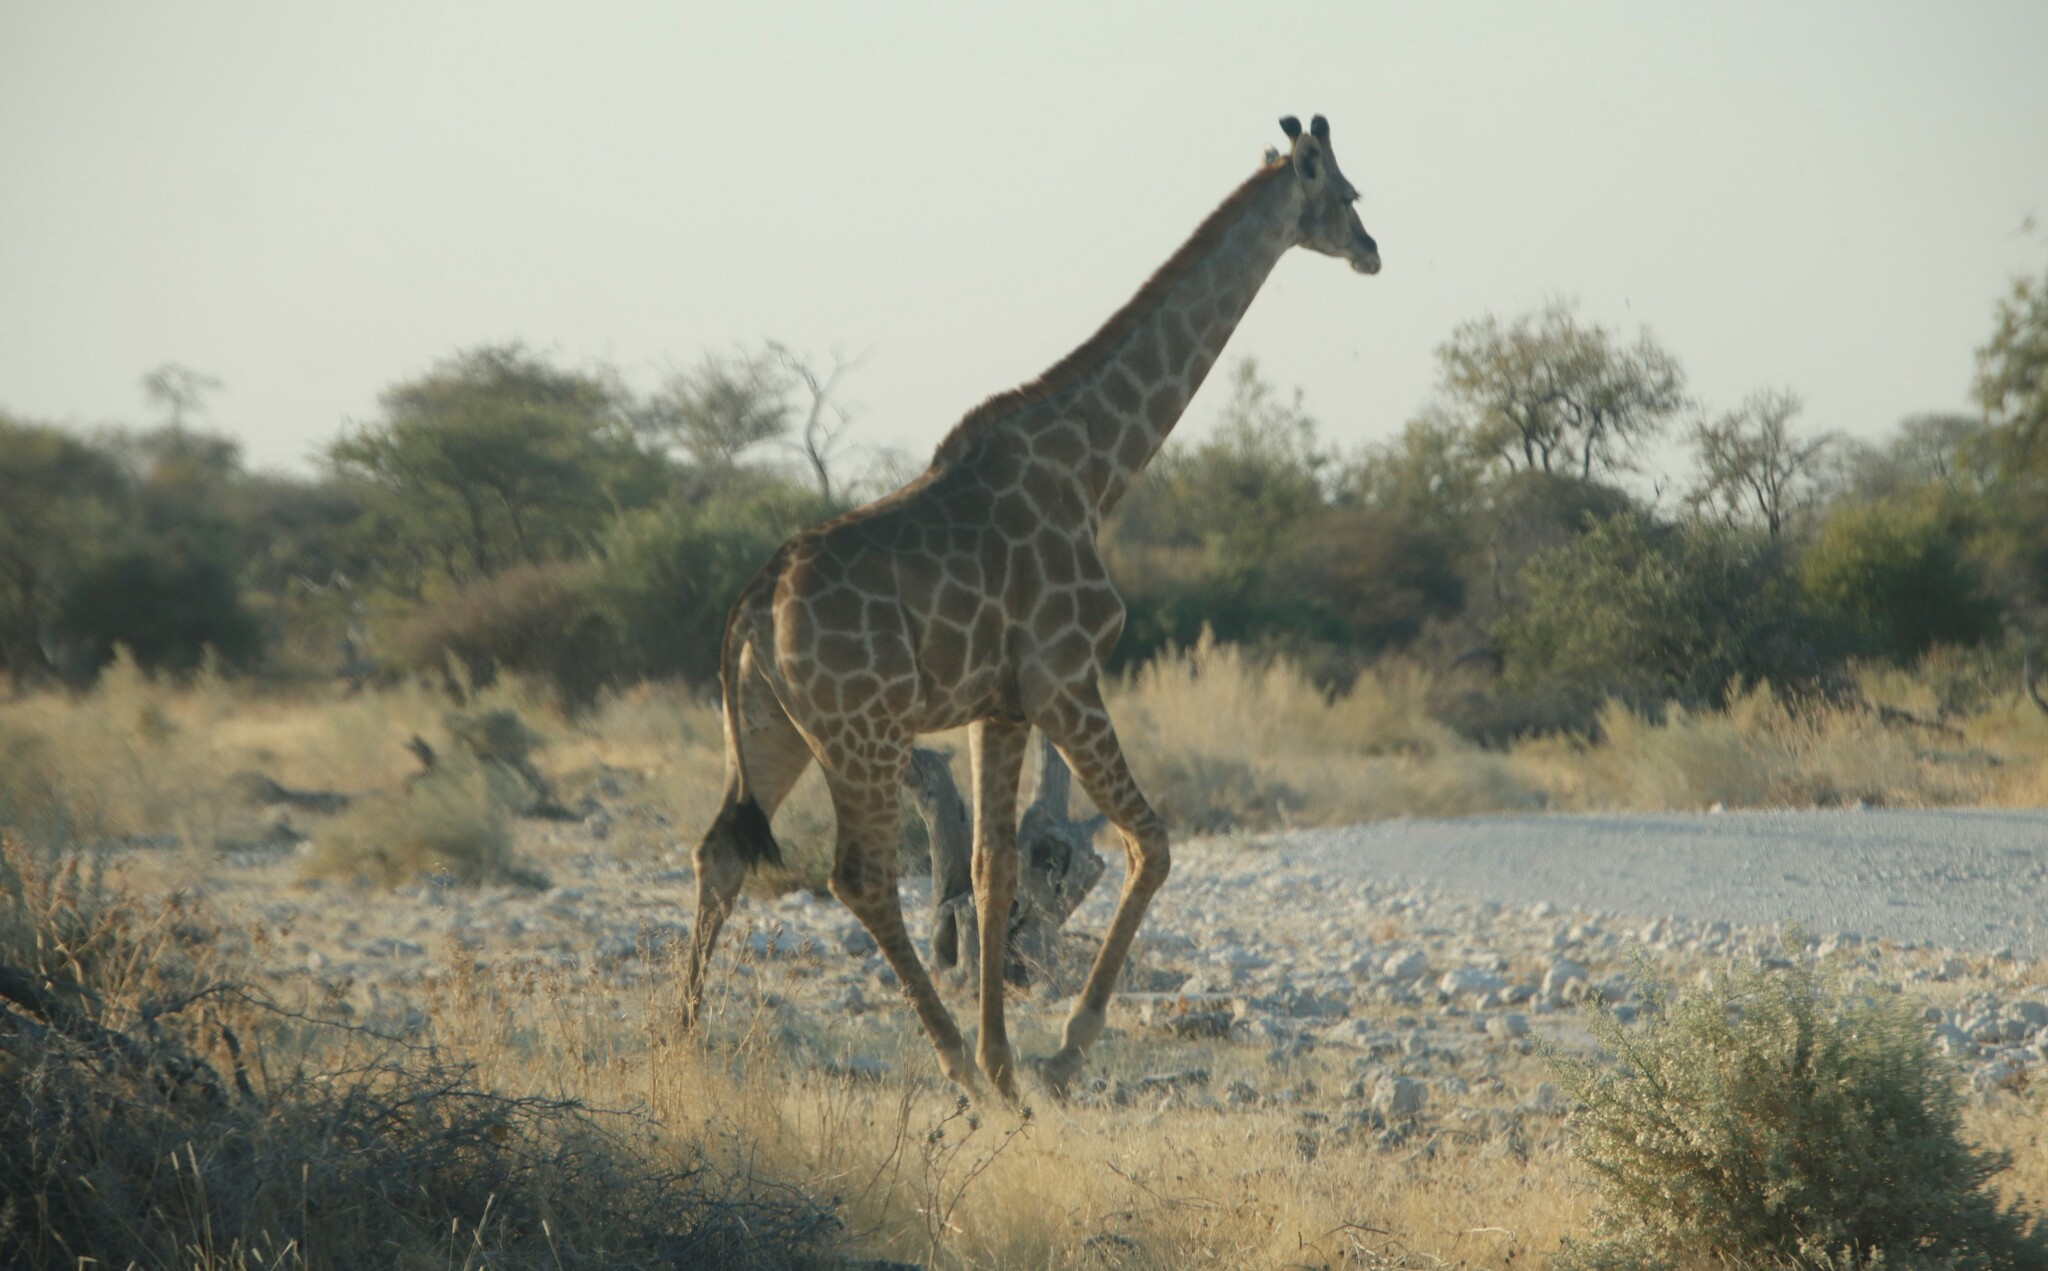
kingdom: Animalia
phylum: Chordata
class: Mammalia
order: Artiodactyla
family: Giraffidae
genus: Giraffa
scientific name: Giraffa giraffa
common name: Southern giraffe
